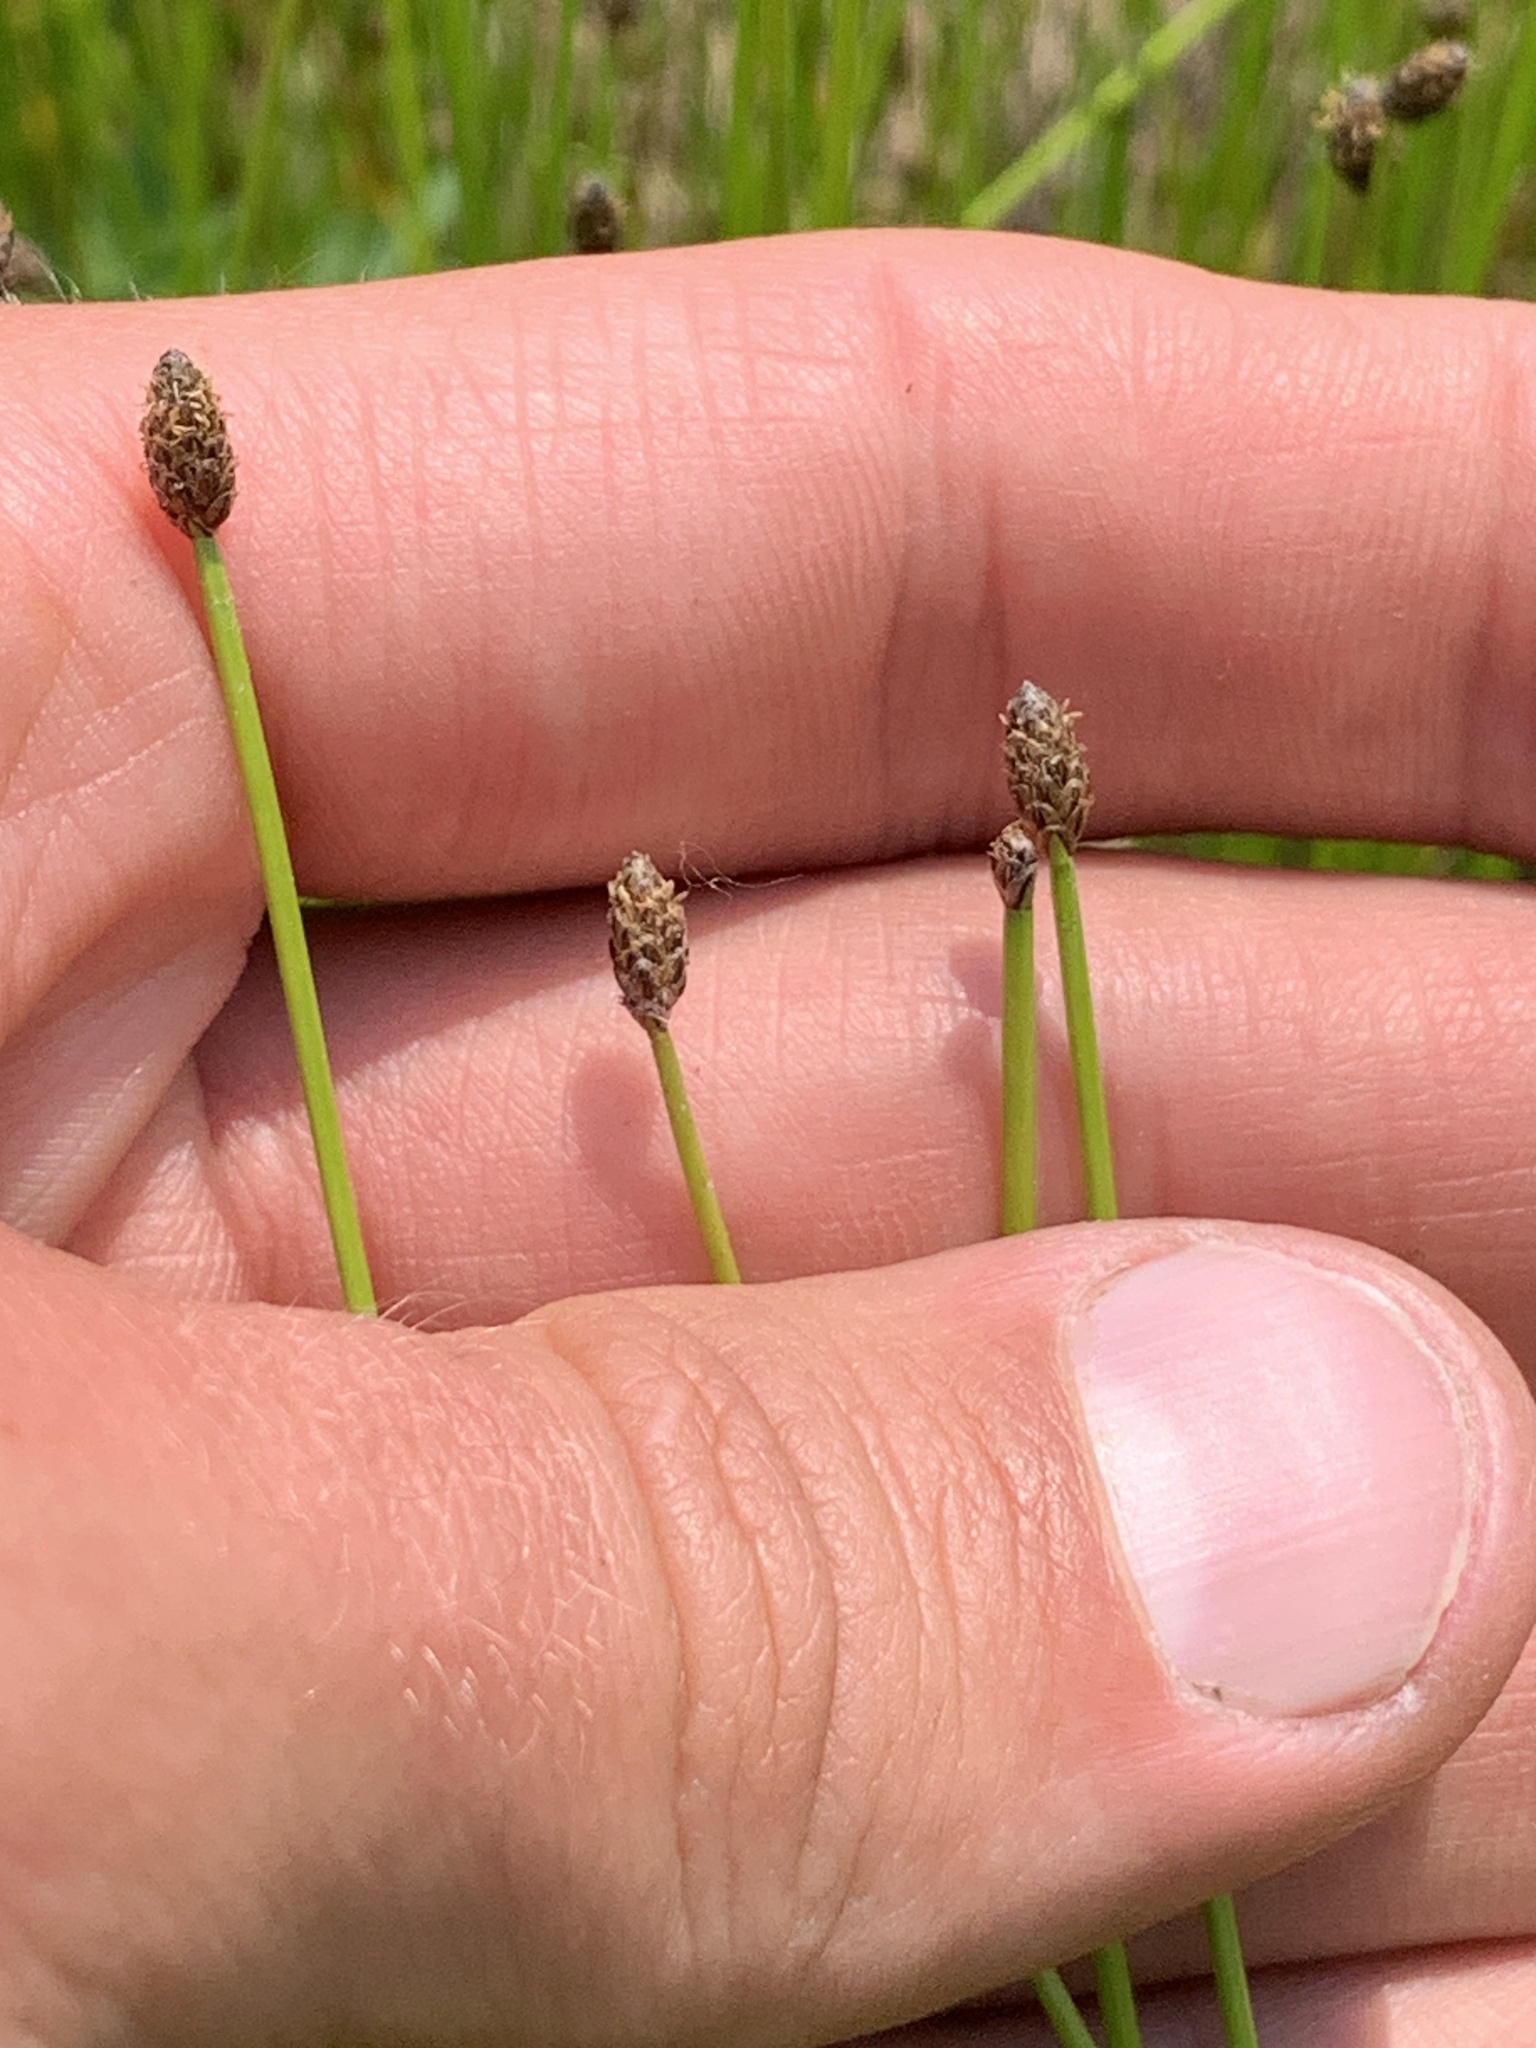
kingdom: Plantae
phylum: Tracheophyta
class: Liliopsida
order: Poales
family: Cyperaceae
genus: Eleocharis
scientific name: Eleocharis obtusa
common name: Blunt spikerush
